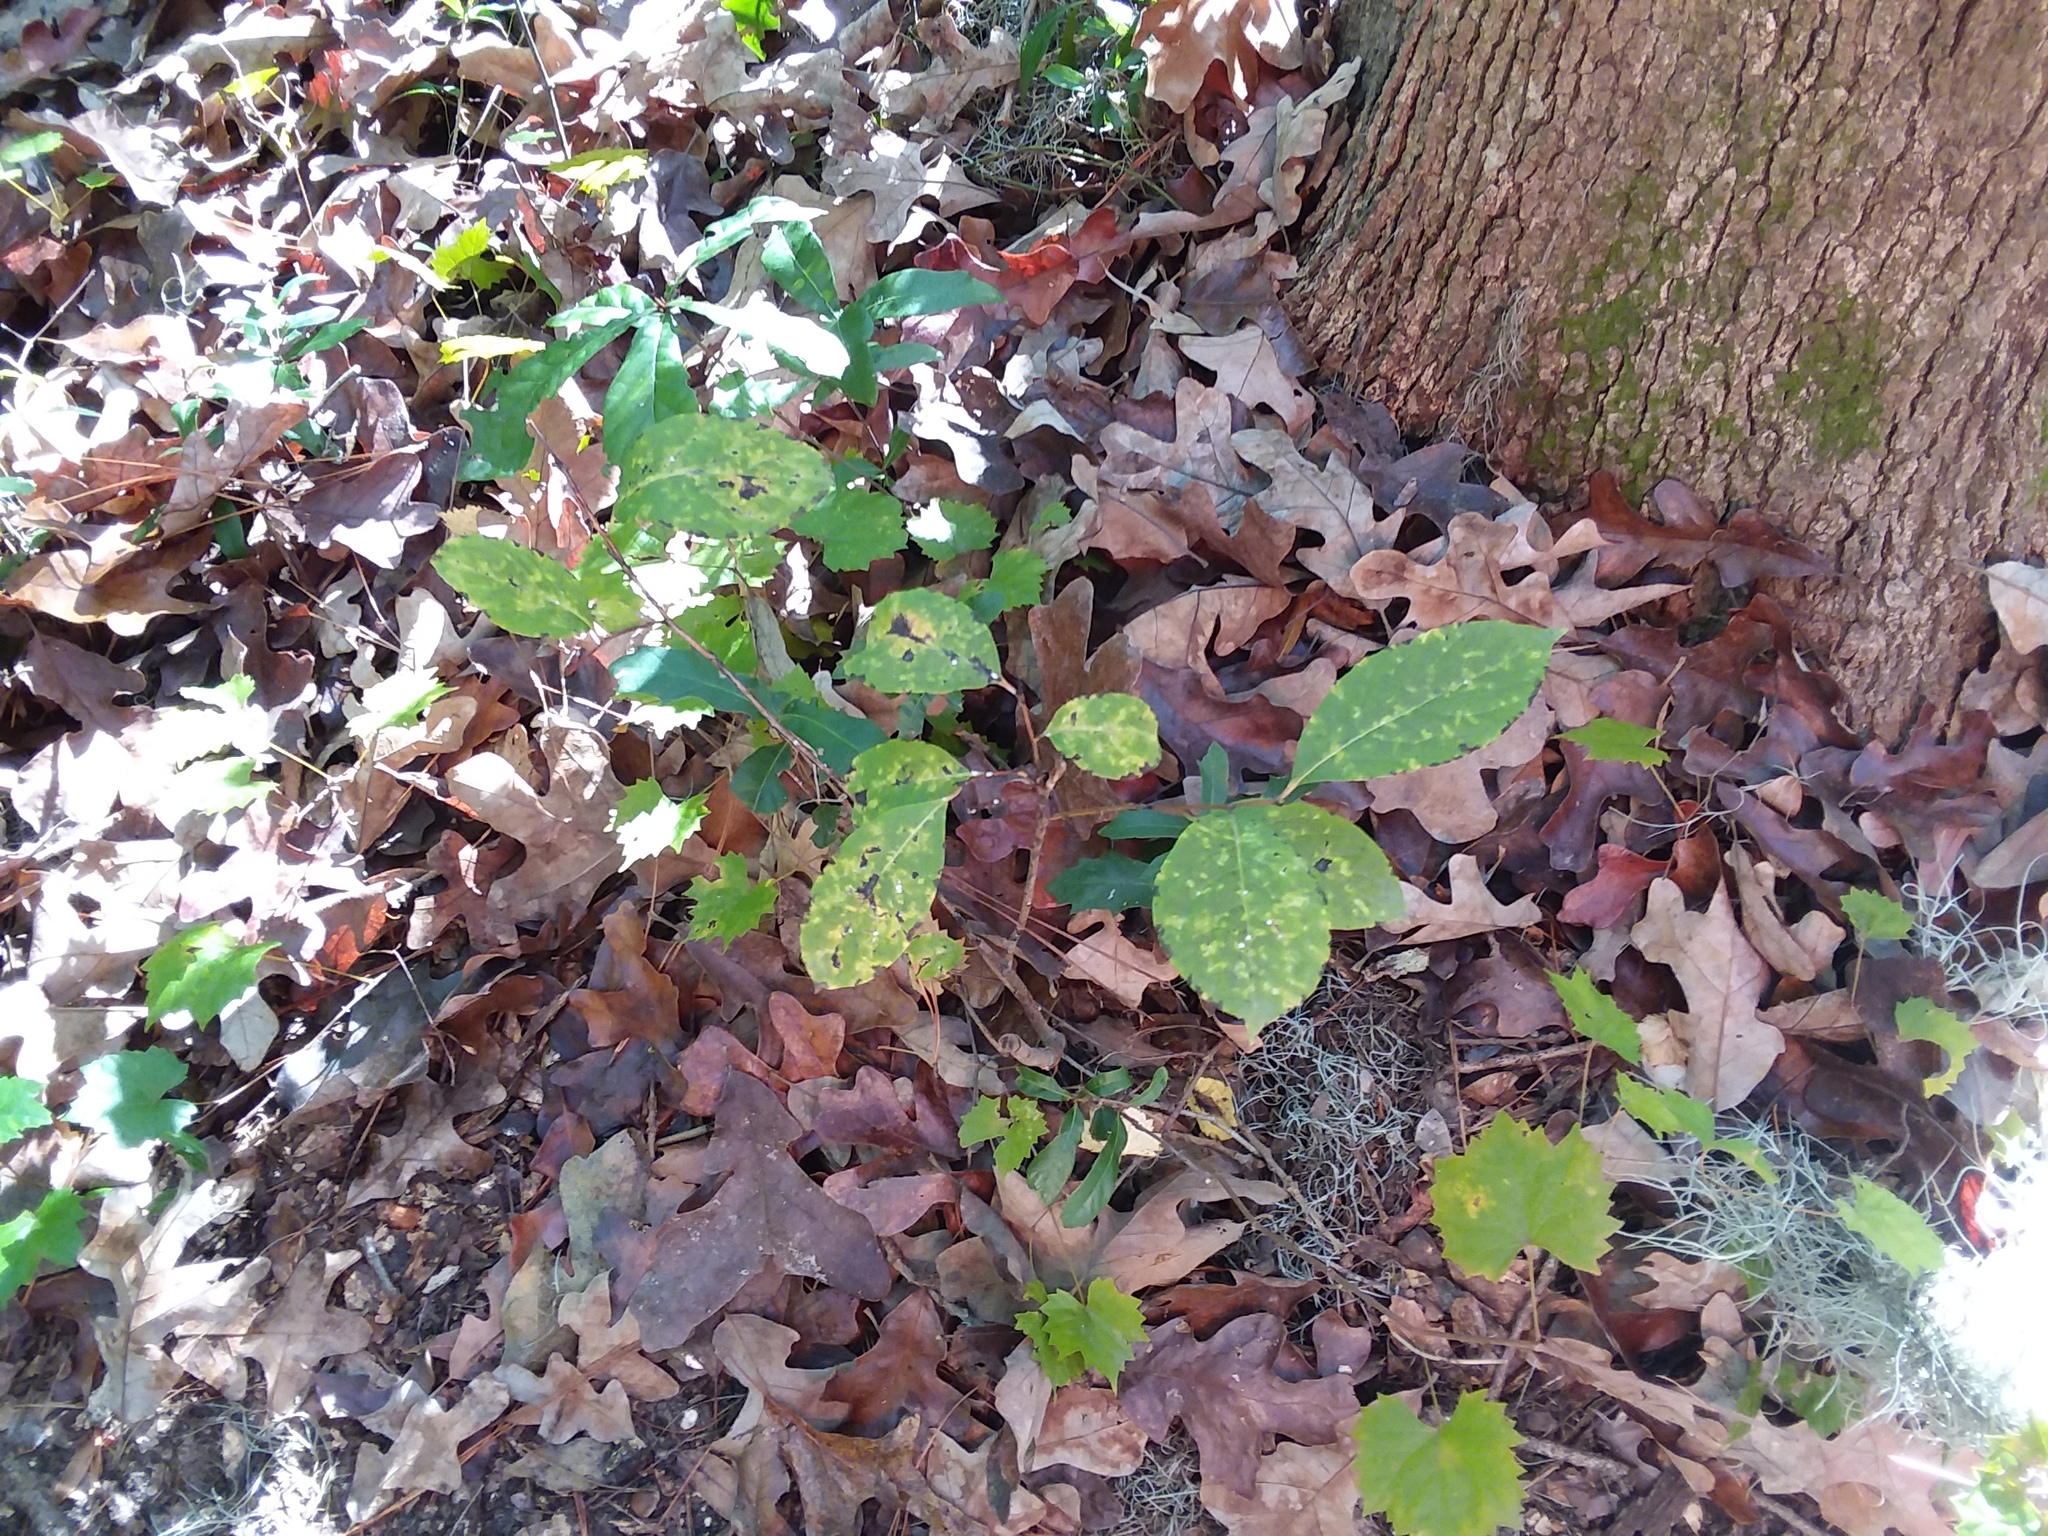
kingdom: Plantae
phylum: Tracheophyta
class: Magnoliopsida
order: Ericales
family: Ebenaceae
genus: Diospyros
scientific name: Diospyros virginiana
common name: Persimmon
